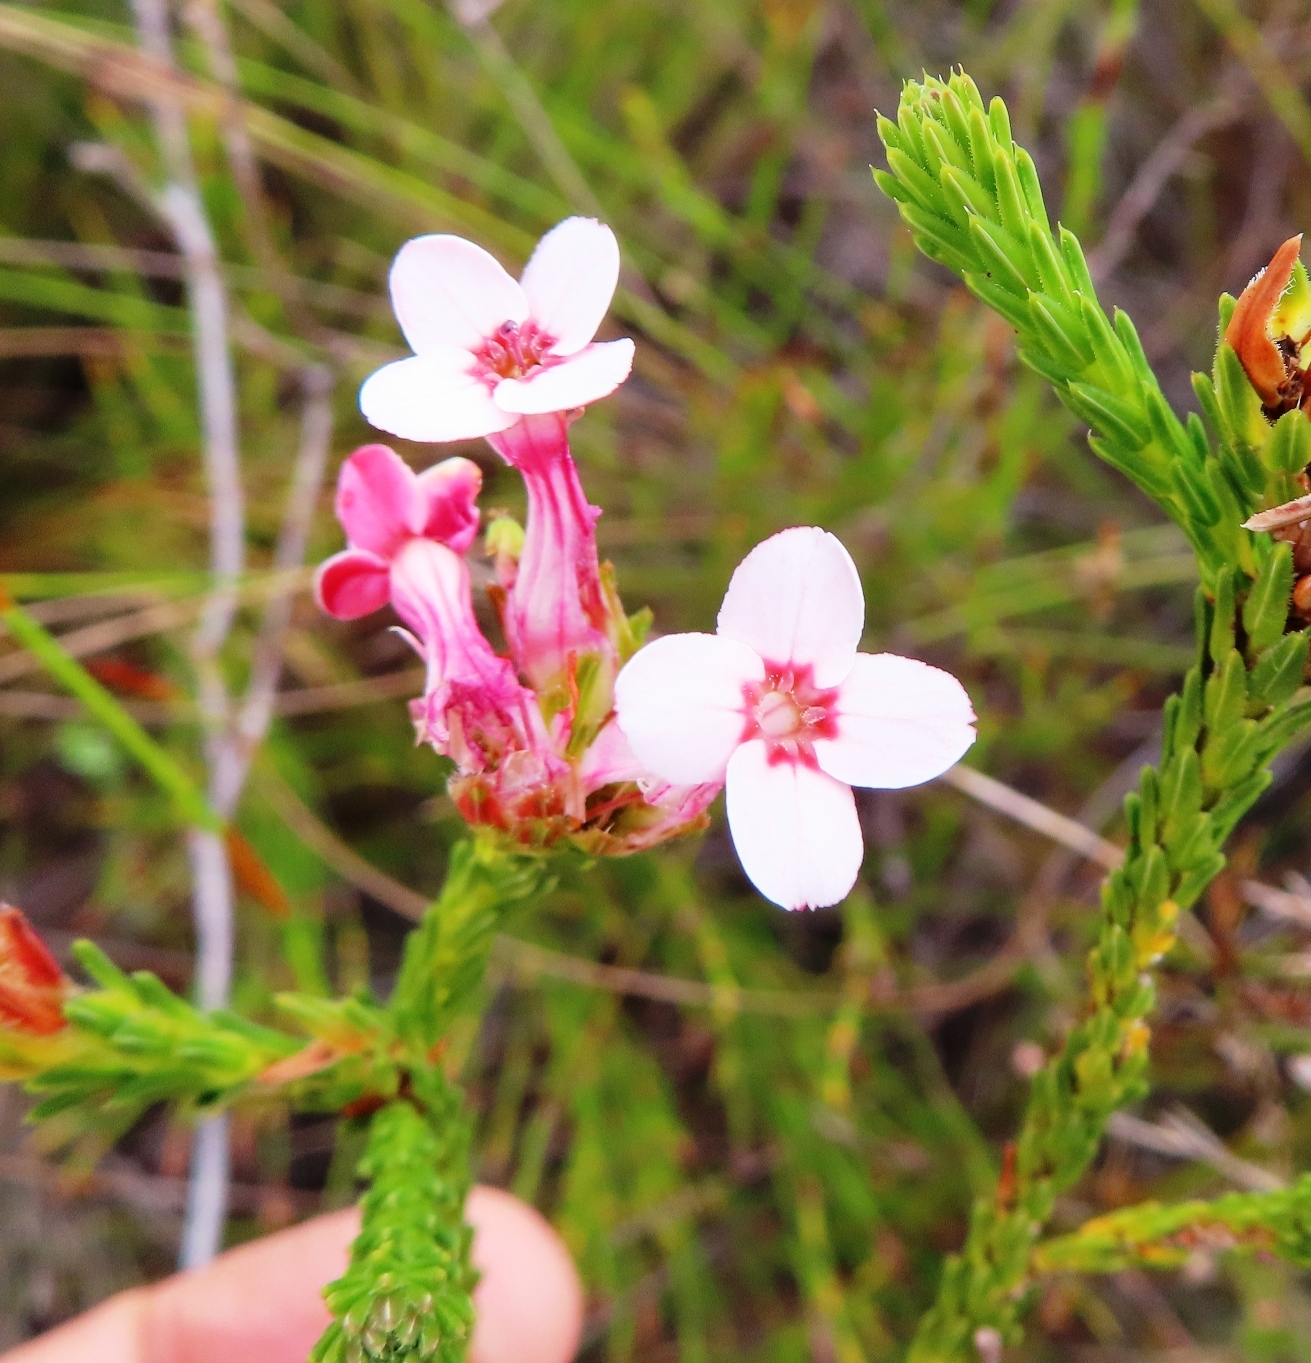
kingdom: Plantae
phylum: Tracheophyta
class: Magnoliopsida
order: Ericales
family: Ericaceae
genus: Erica
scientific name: Erica ampullacea
